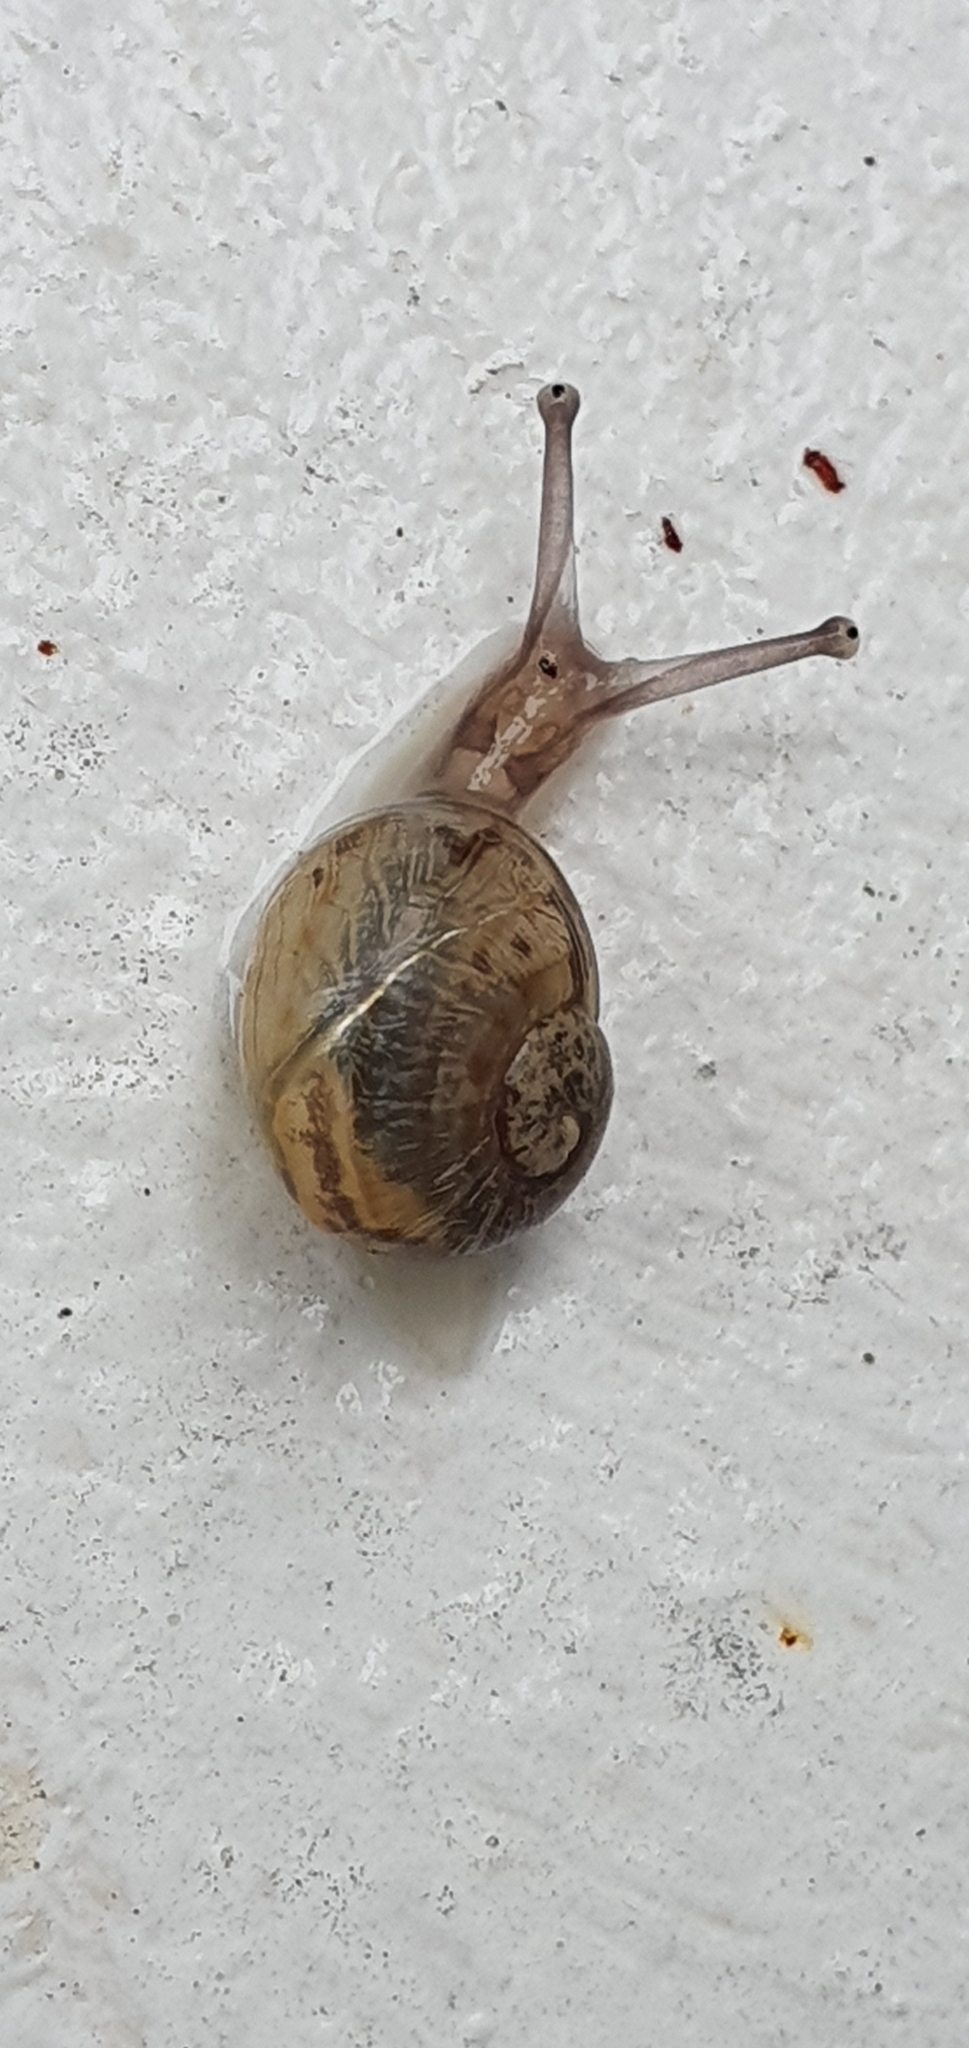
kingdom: Animalia
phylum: Mollusca
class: Gastropoda
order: Stylommatophora
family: Helicidae
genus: Cornu
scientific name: Cornu aspersum
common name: Brown garden snail
